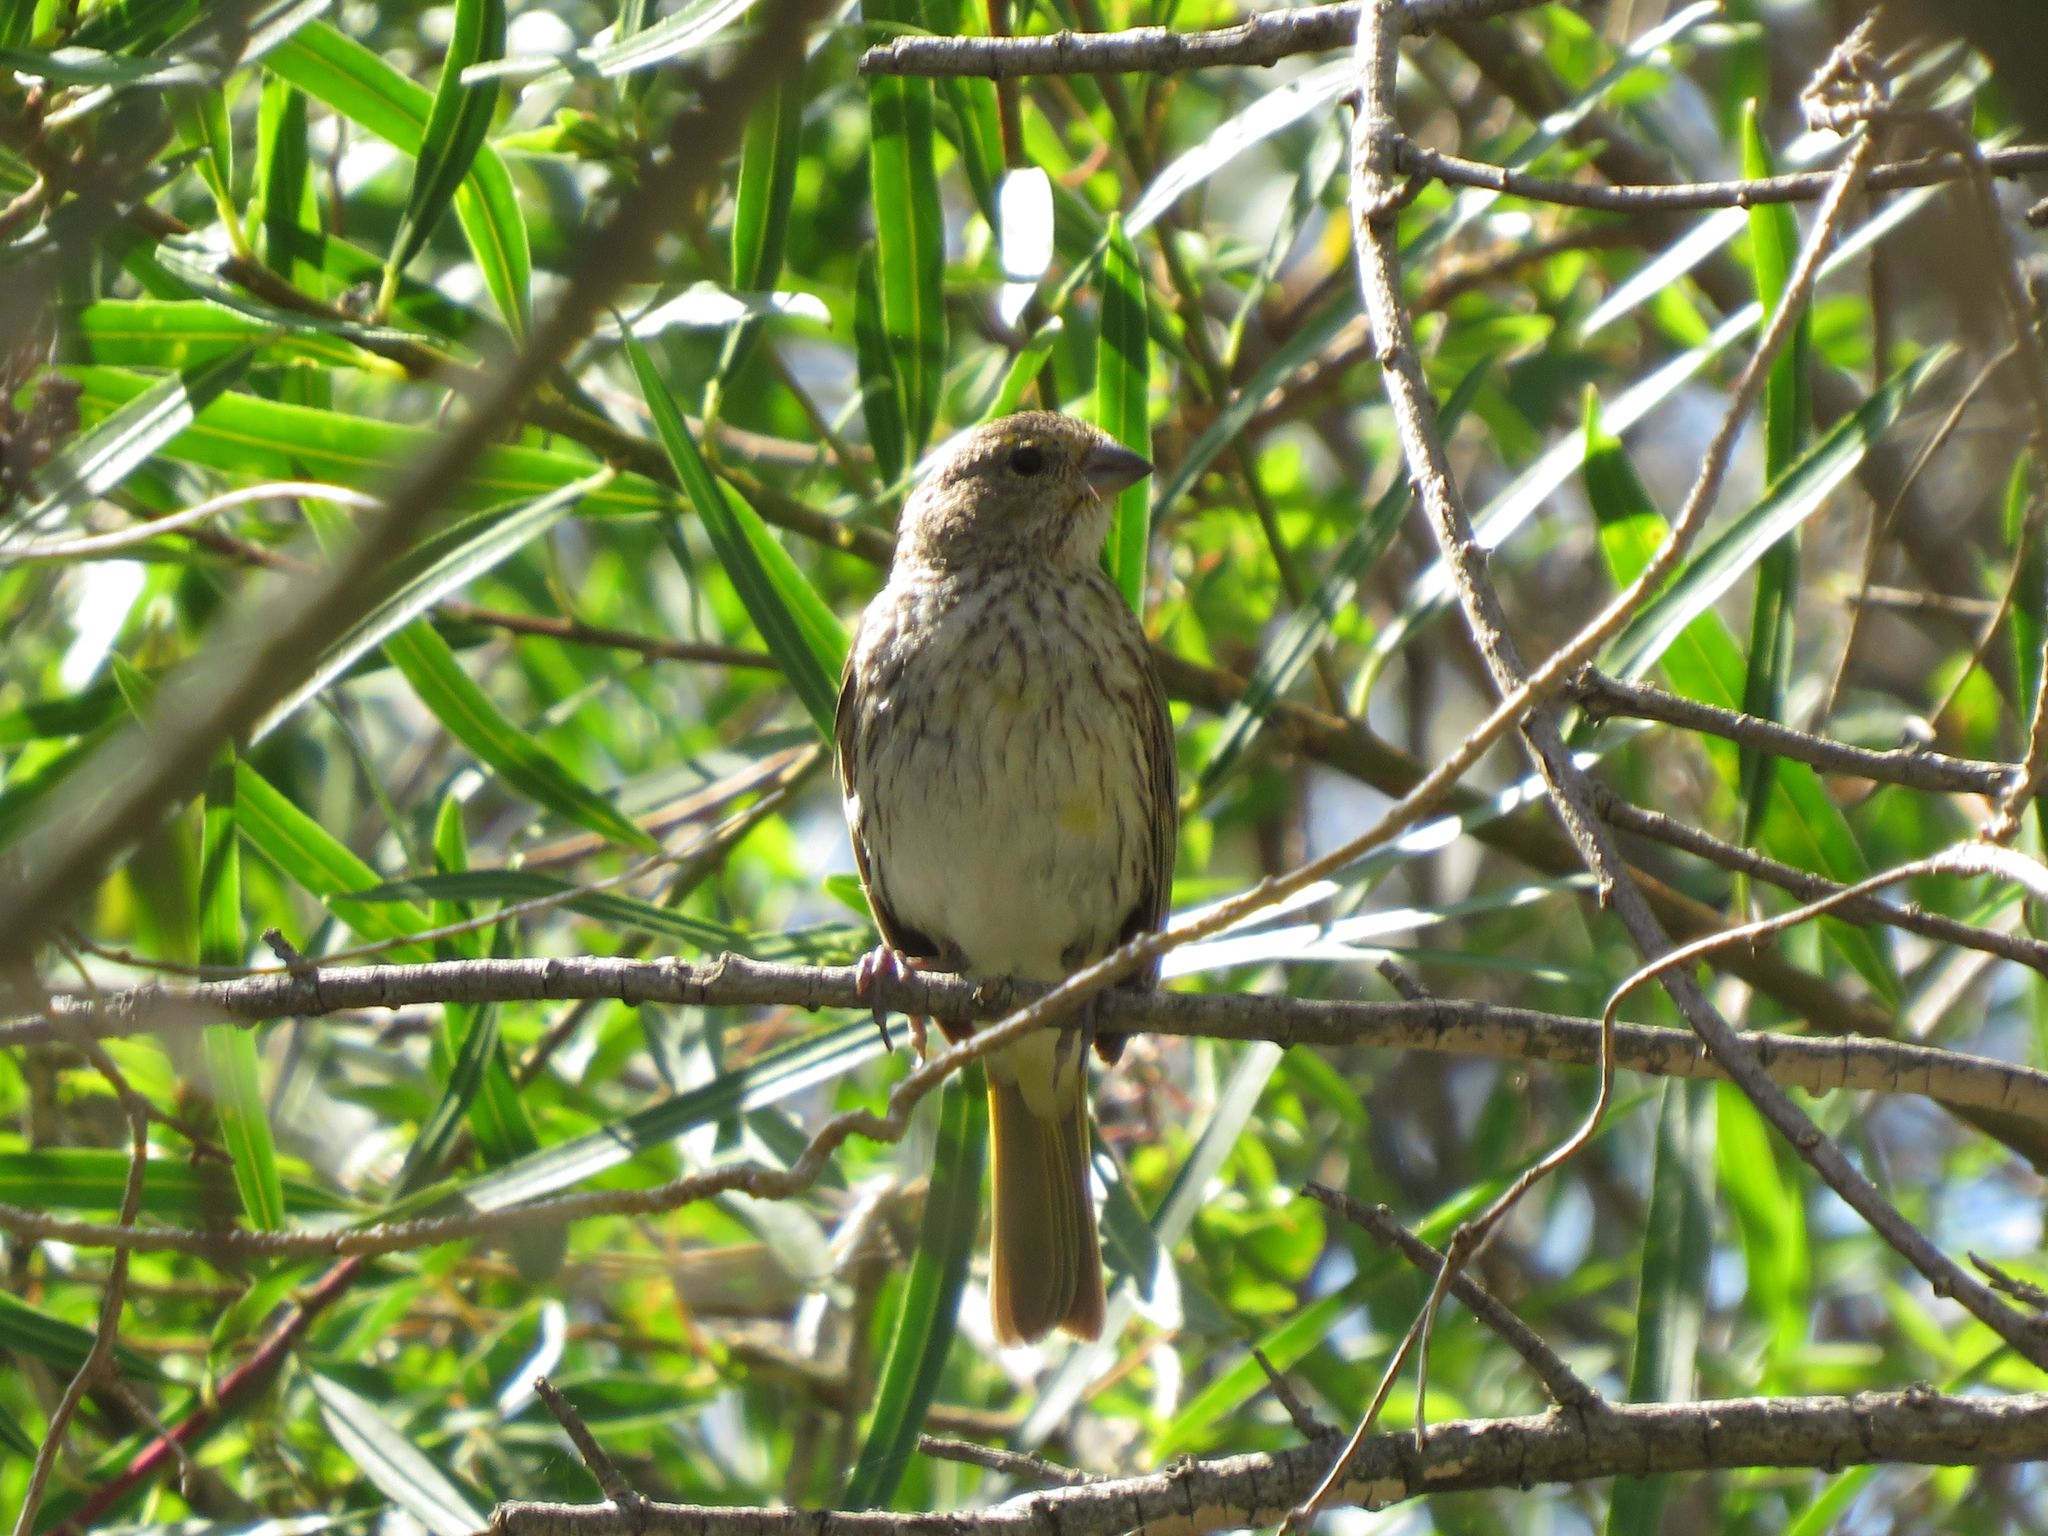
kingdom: Animalia
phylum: Chordata
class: Aves
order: Passeriformes
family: Thraupidae
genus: Sicalis
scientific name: Sicalis flaveola
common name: Saffron finch
